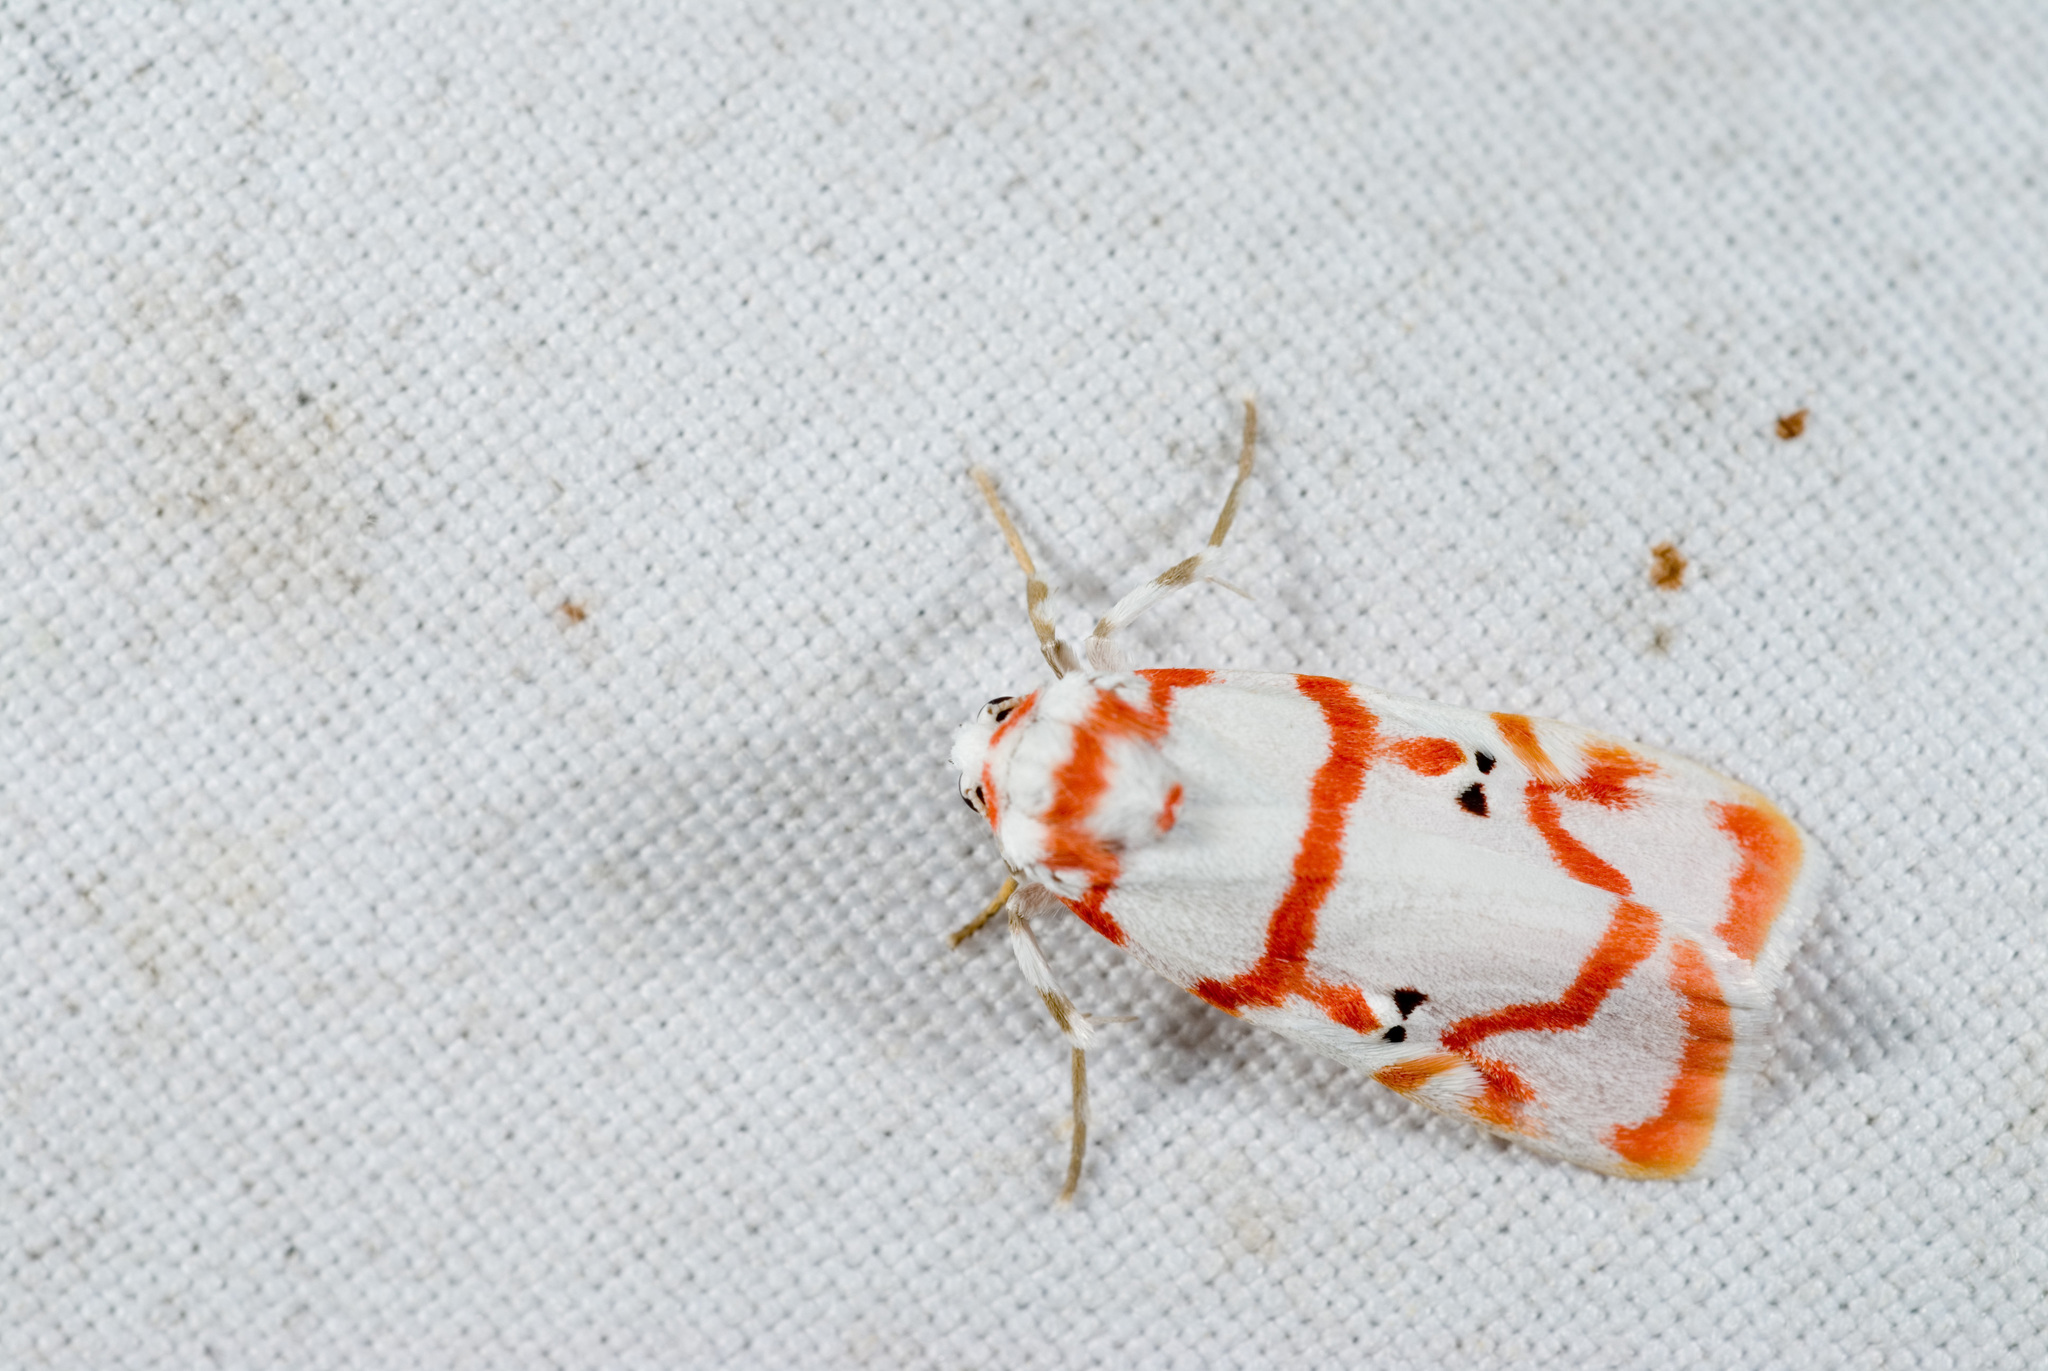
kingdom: Animalia
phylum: Arthropoda
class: Insecta
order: Lepidoptera
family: Erebidae
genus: Cyana
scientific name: Cyana hamata
